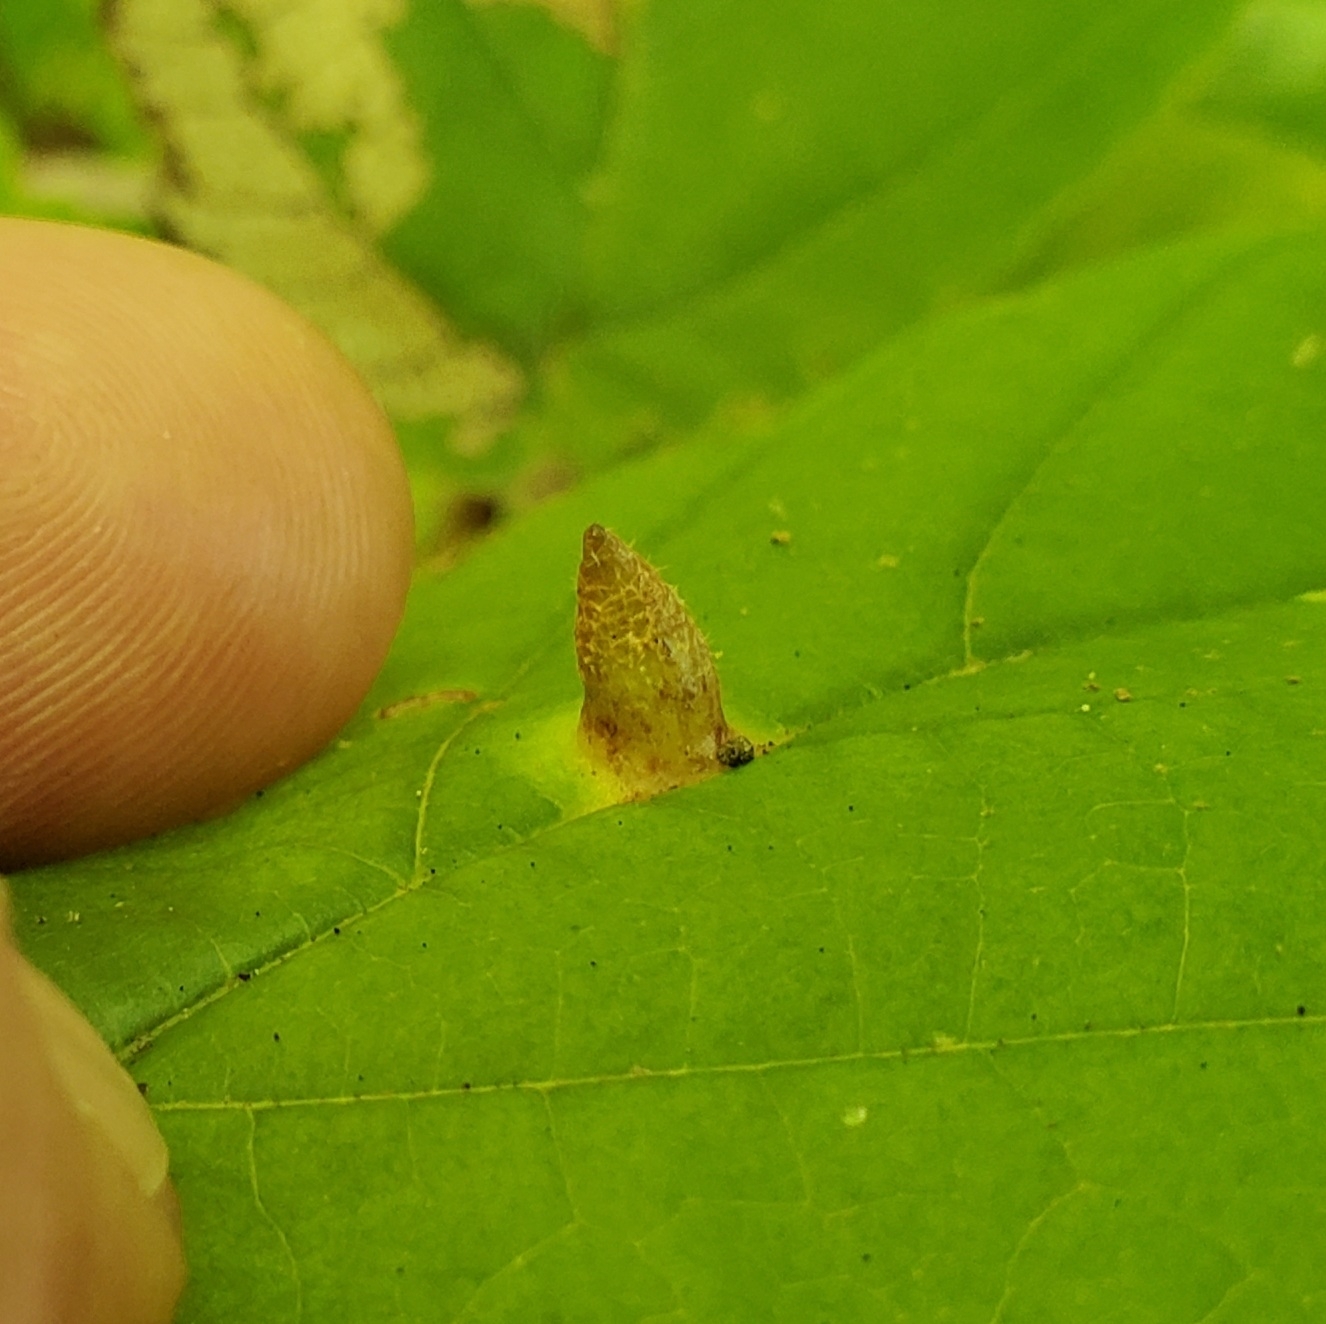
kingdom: Animalia
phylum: Arthropoda
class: Insecta
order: Hemiptera
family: Aphididae
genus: Hormaphis
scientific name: Hormaphis hamamelidis
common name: Witch-hazel cone gall aphid
